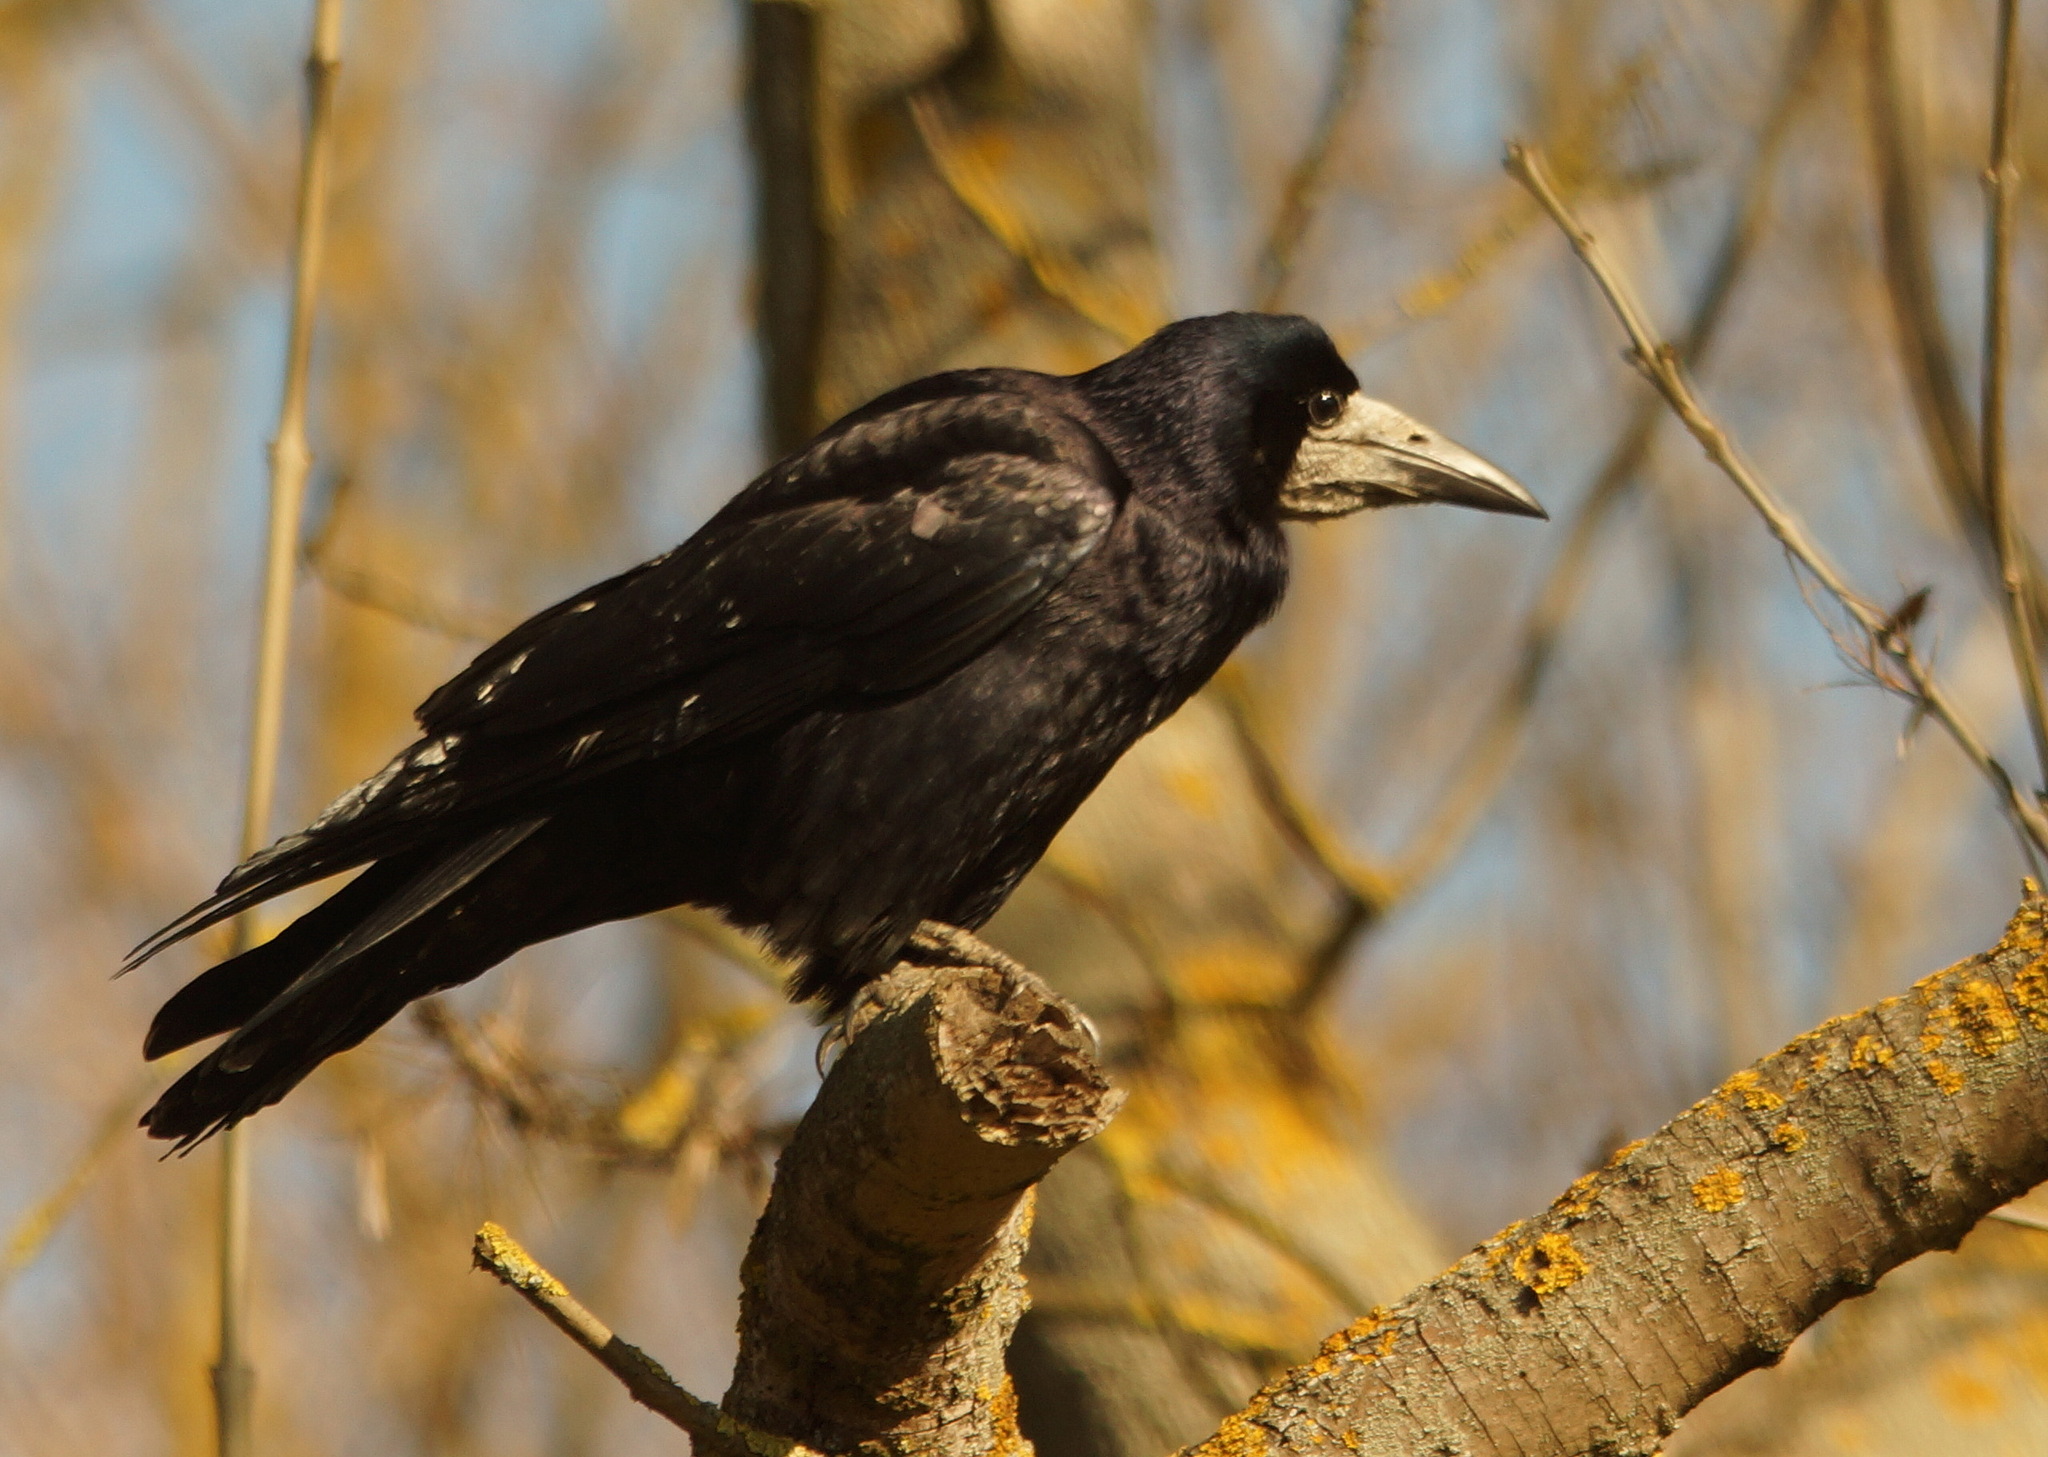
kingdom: Animalia
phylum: Chordata
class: Aves
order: Passeriformes
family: Corvidae
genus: Corvus
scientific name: Corvus frugilegus
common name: Rook
